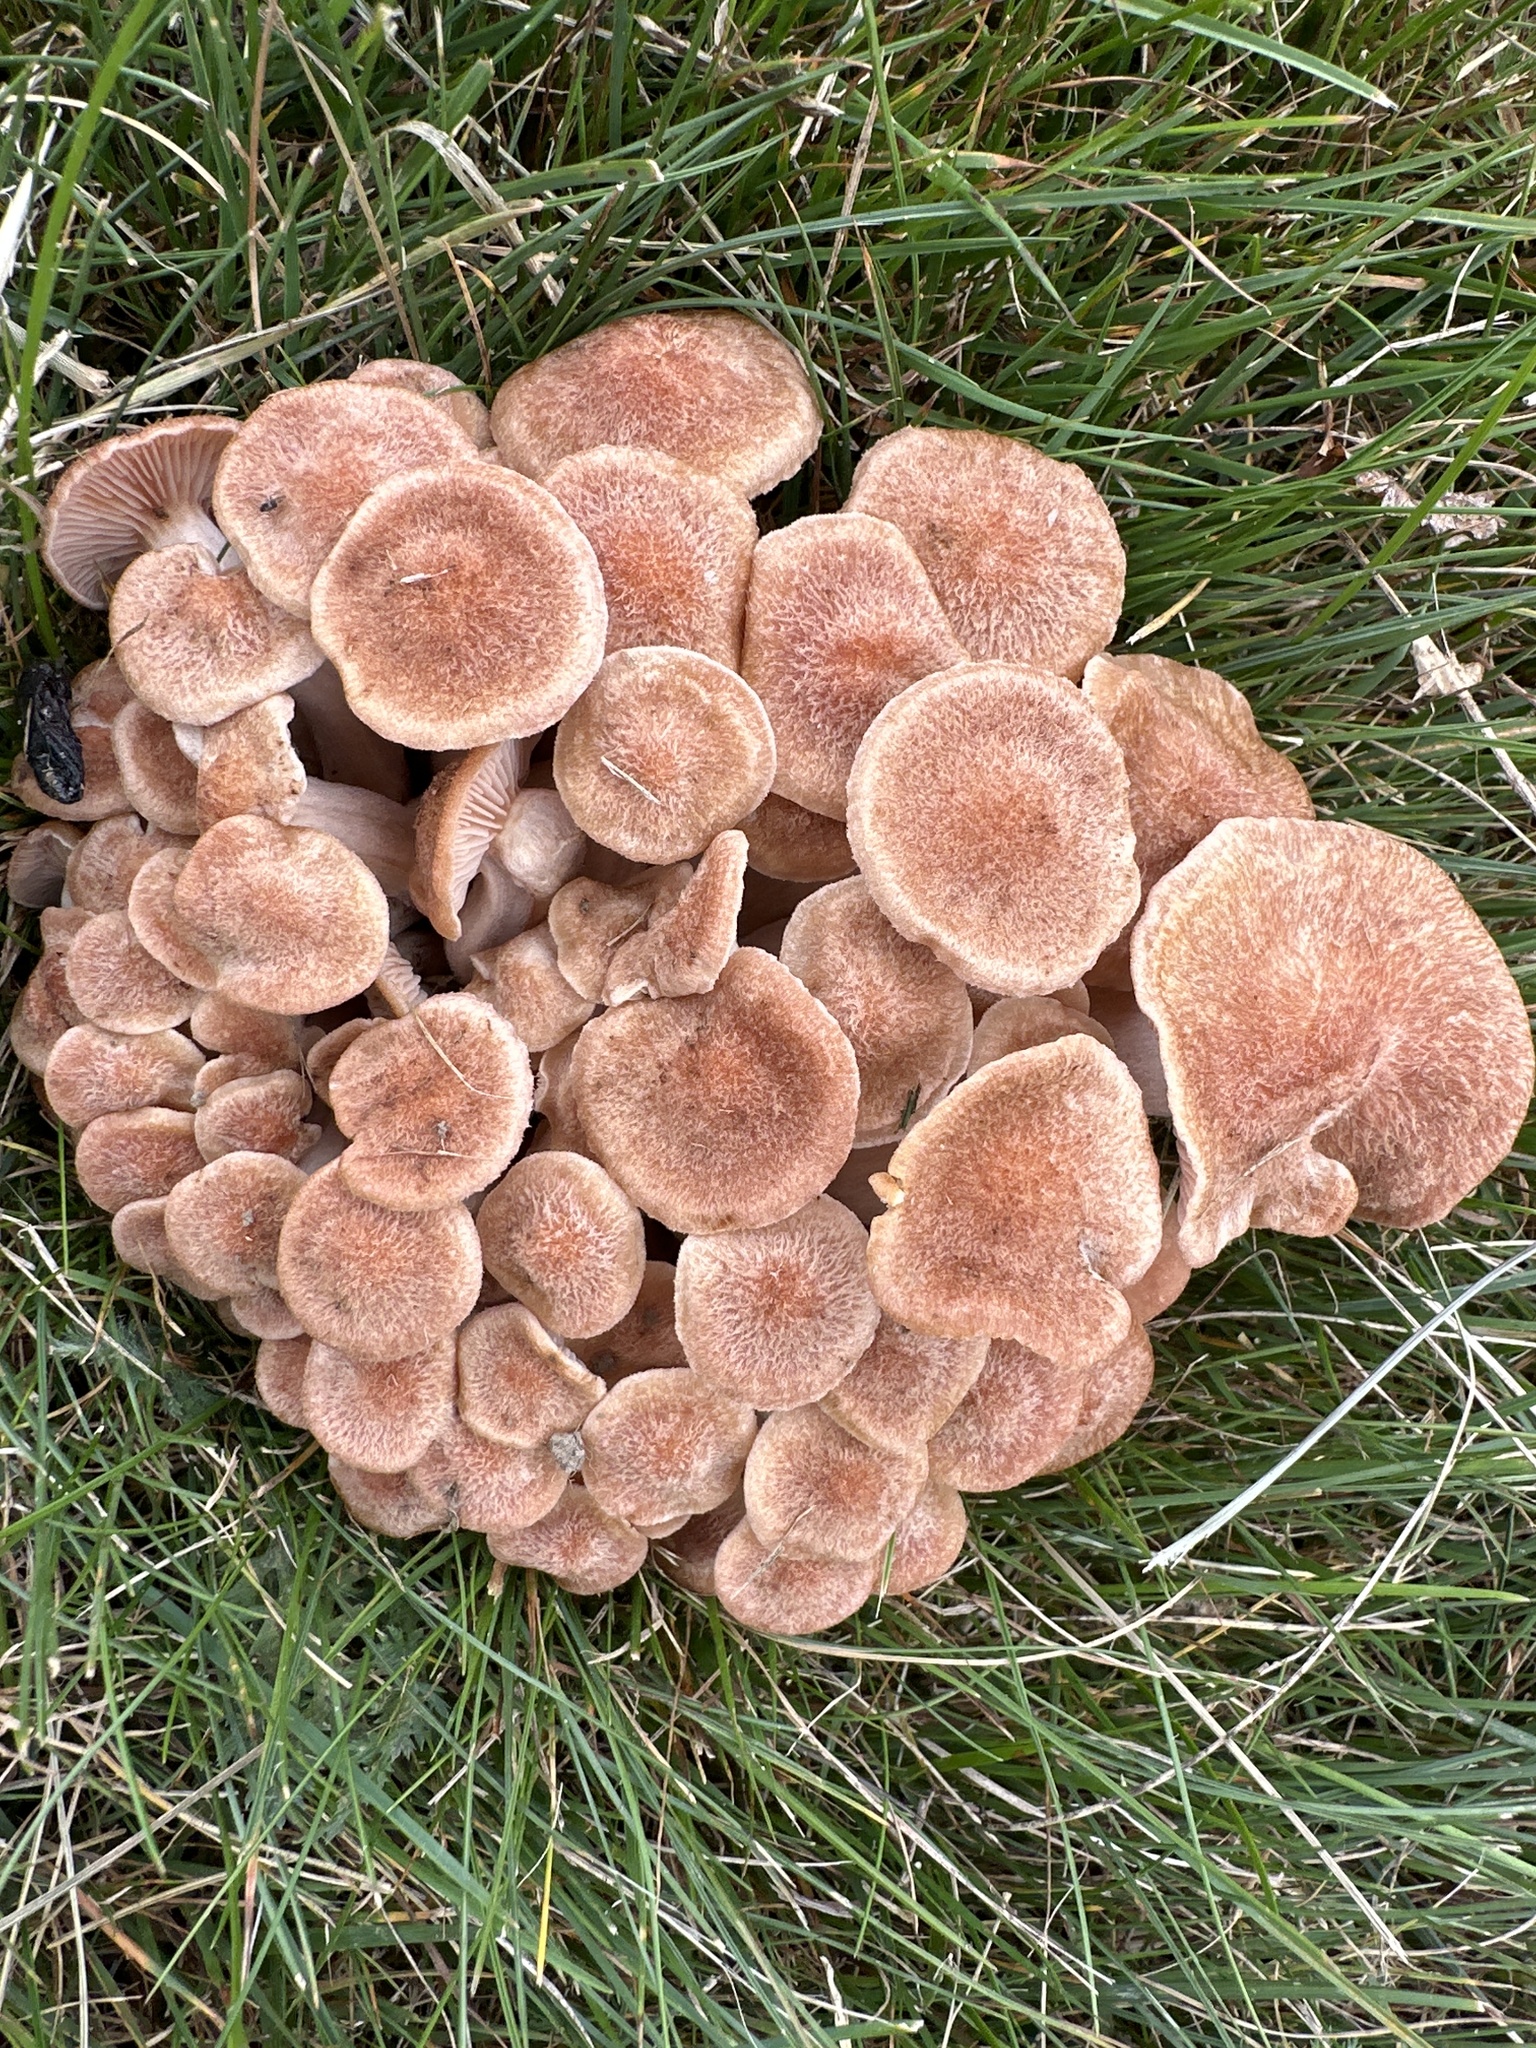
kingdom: Fungi
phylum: Basidiomycota
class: Agaricomycetes
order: Agaricales
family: Physalacriaceae
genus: Desarmillaria
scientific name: Desarmillaria caespitosa
